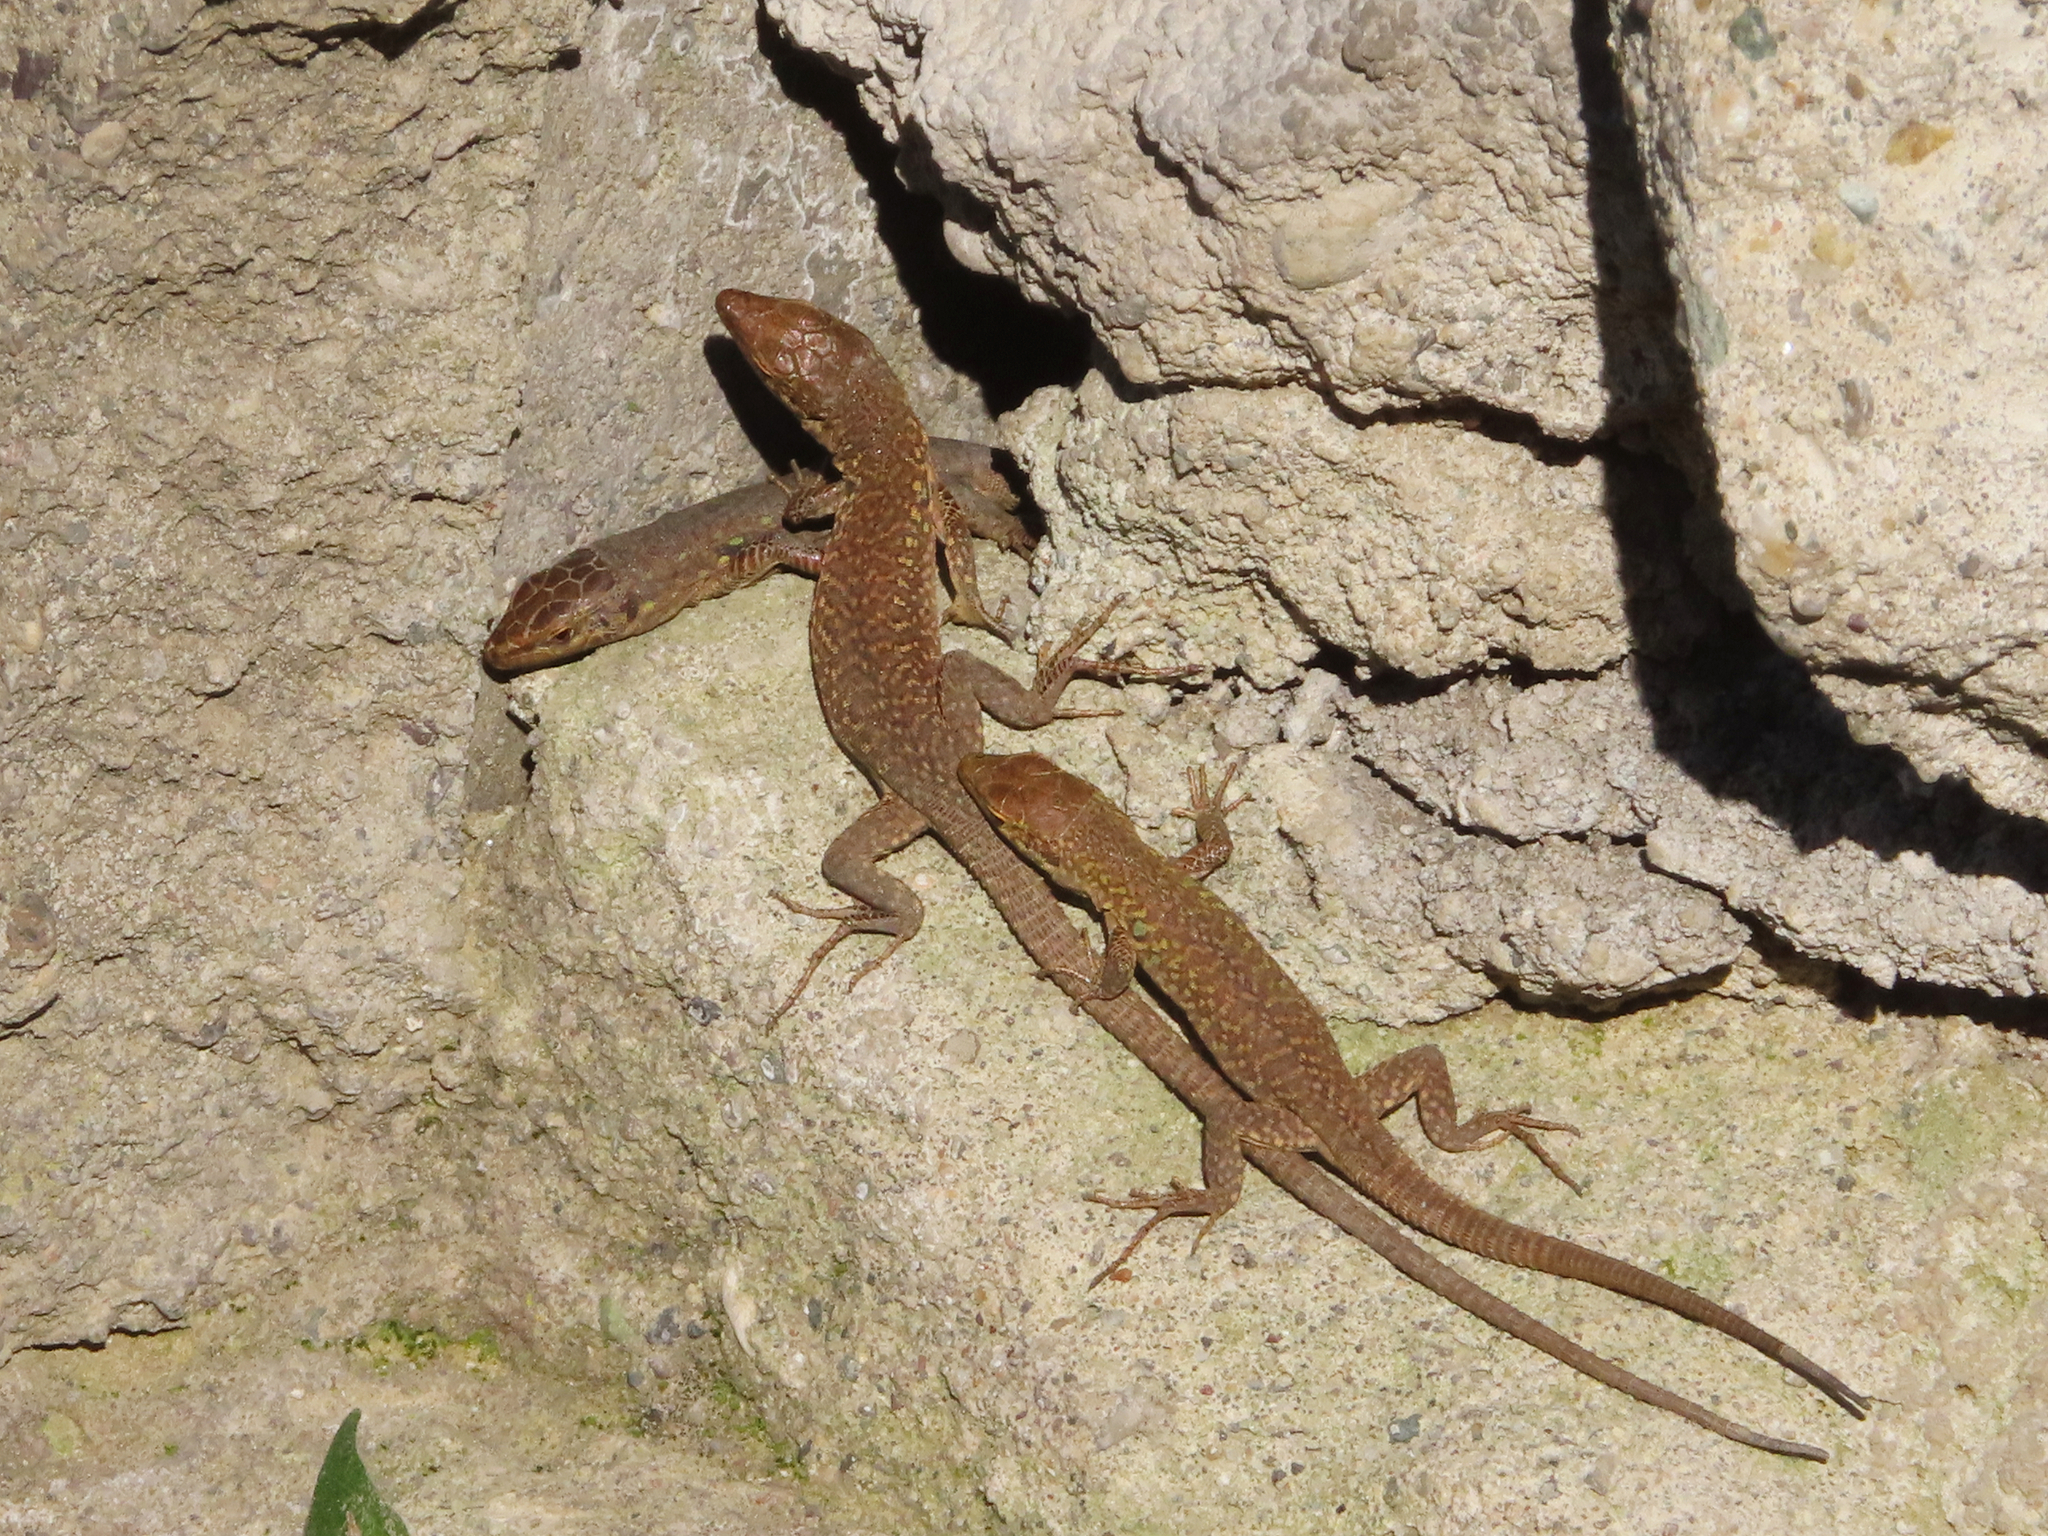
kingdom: Animalia
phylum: Chordata
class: Squamata
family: Lacertidae
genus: Podarcis
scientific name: Podarcis siculus
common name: Italian wall lizard
